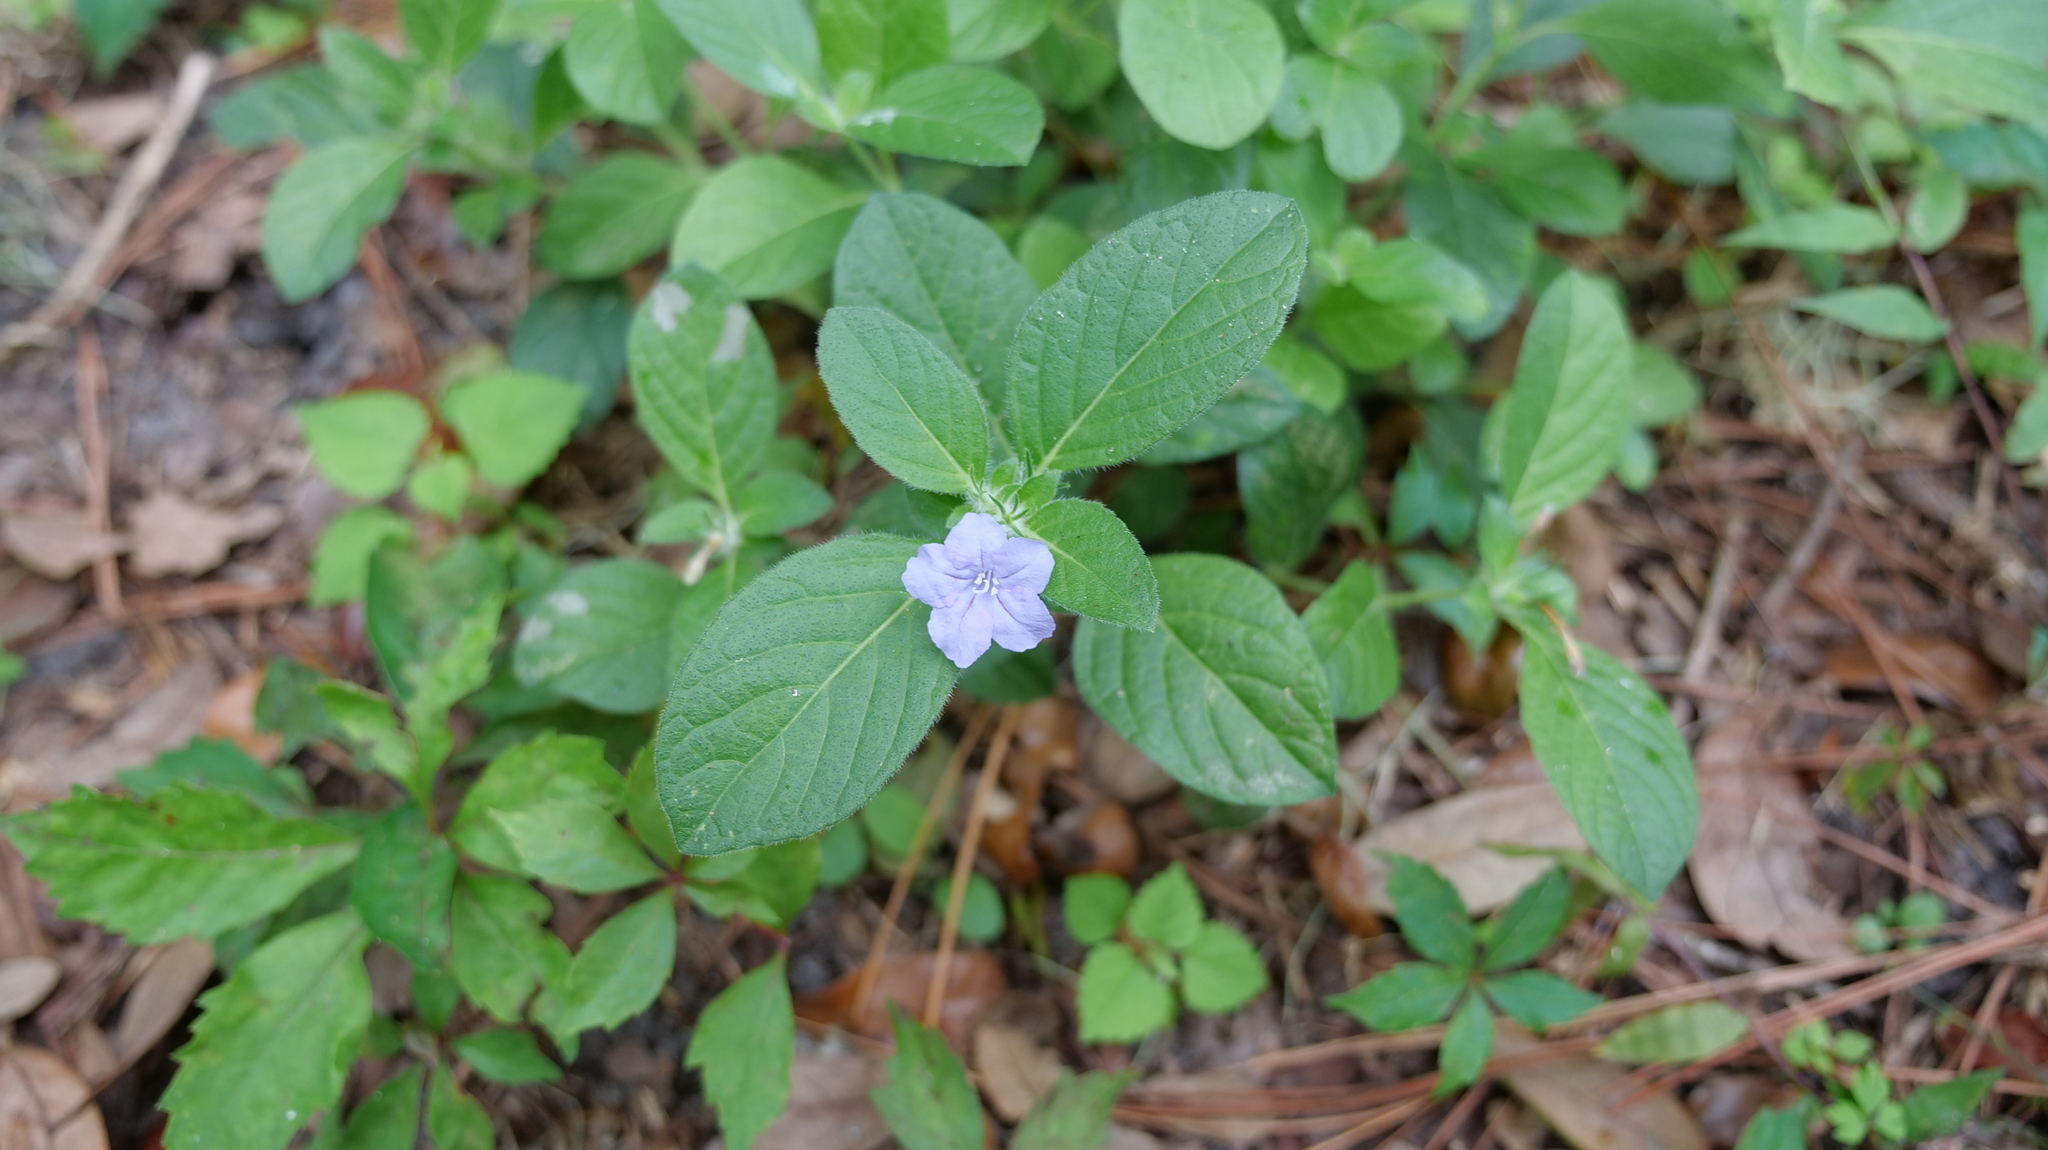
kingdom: Plantae
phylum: Tracheophyta
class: Magnoliopsida
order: Lamiales
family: Acanthaceae
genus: Ruellia
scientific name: Ruellia caroliniensis
